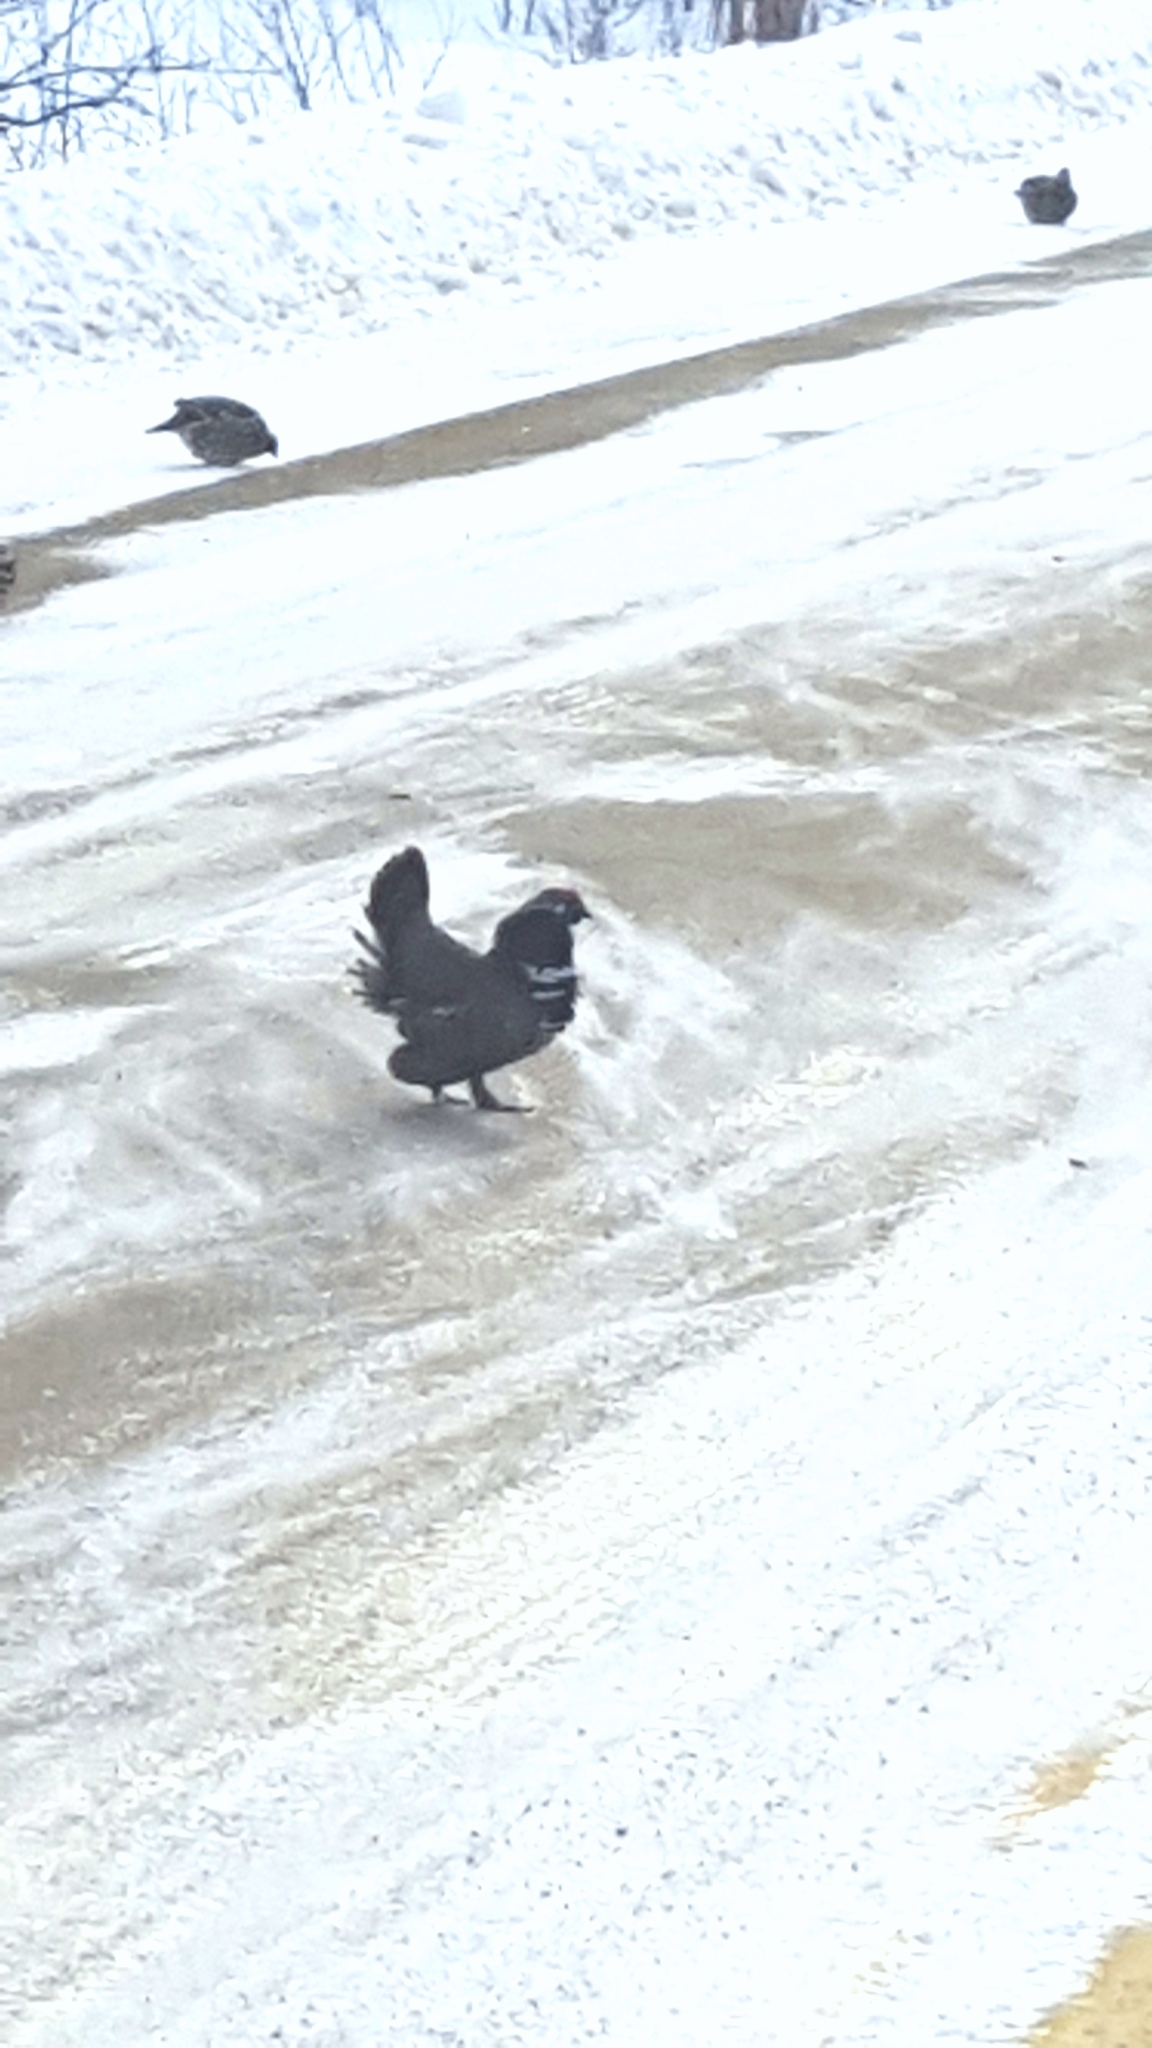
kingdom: Animalia
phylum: Chordata
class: Aves
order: Galliformes
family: Phasianidae
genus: Canachites
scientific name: Canachites canadensis
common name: Spruce grouse
